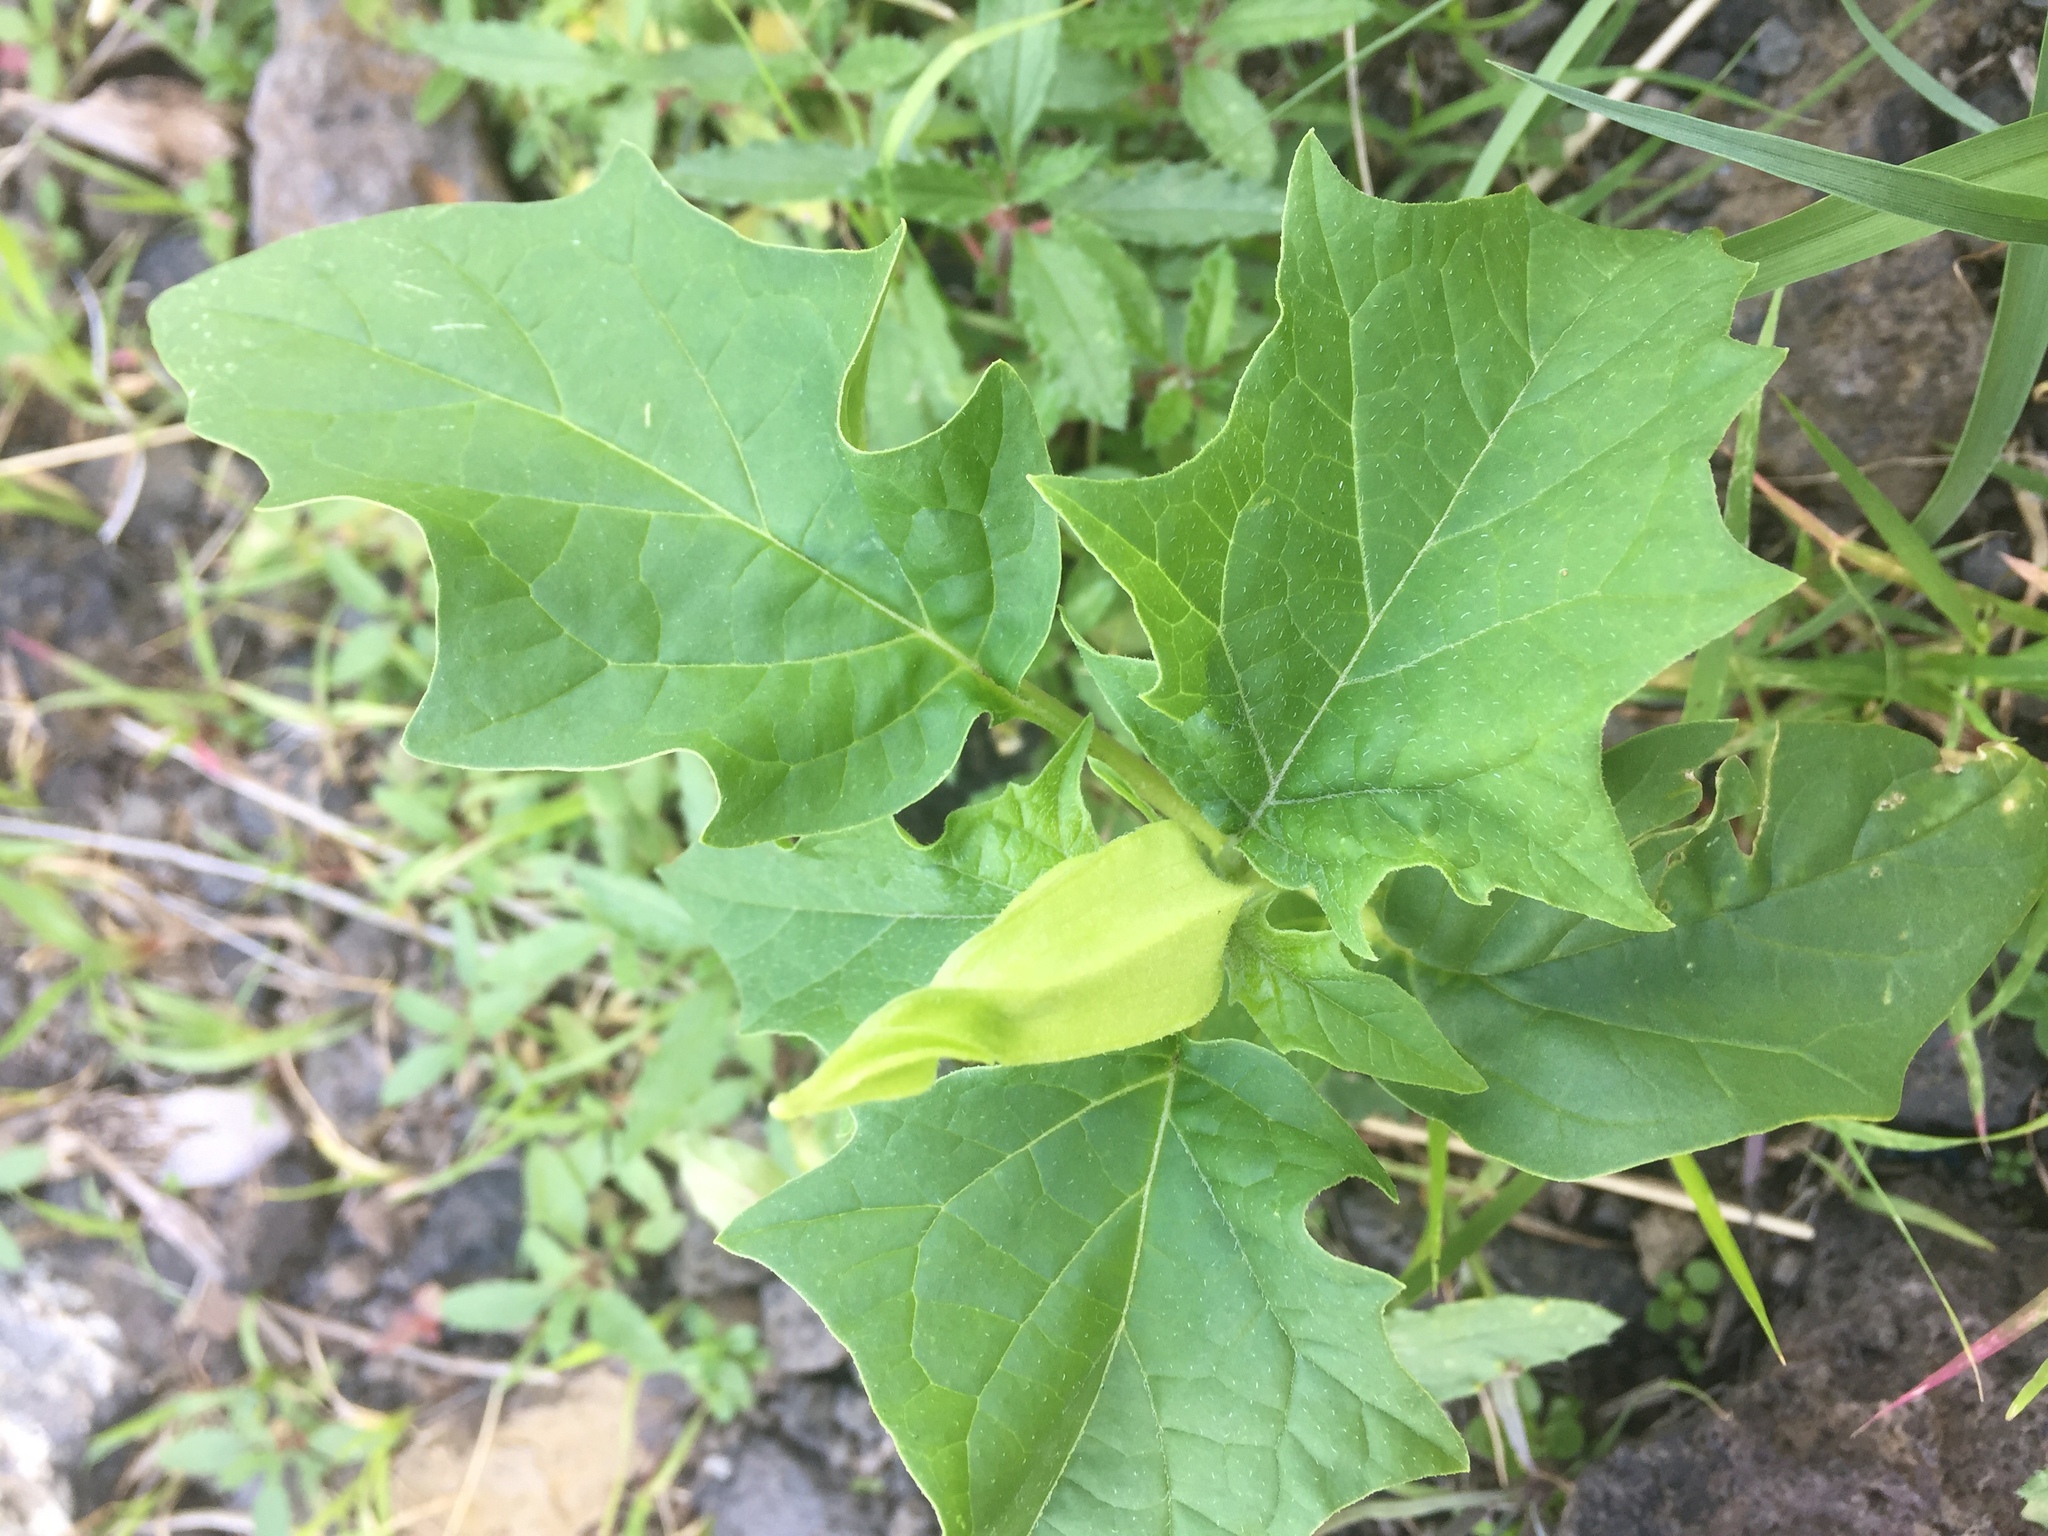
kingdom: Plantae
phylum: Tracheophyta
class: Magnoliopsida
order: Solanales
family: Solanaceae
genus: Datura
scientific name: Datura stramonium
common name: Thorn-apple
